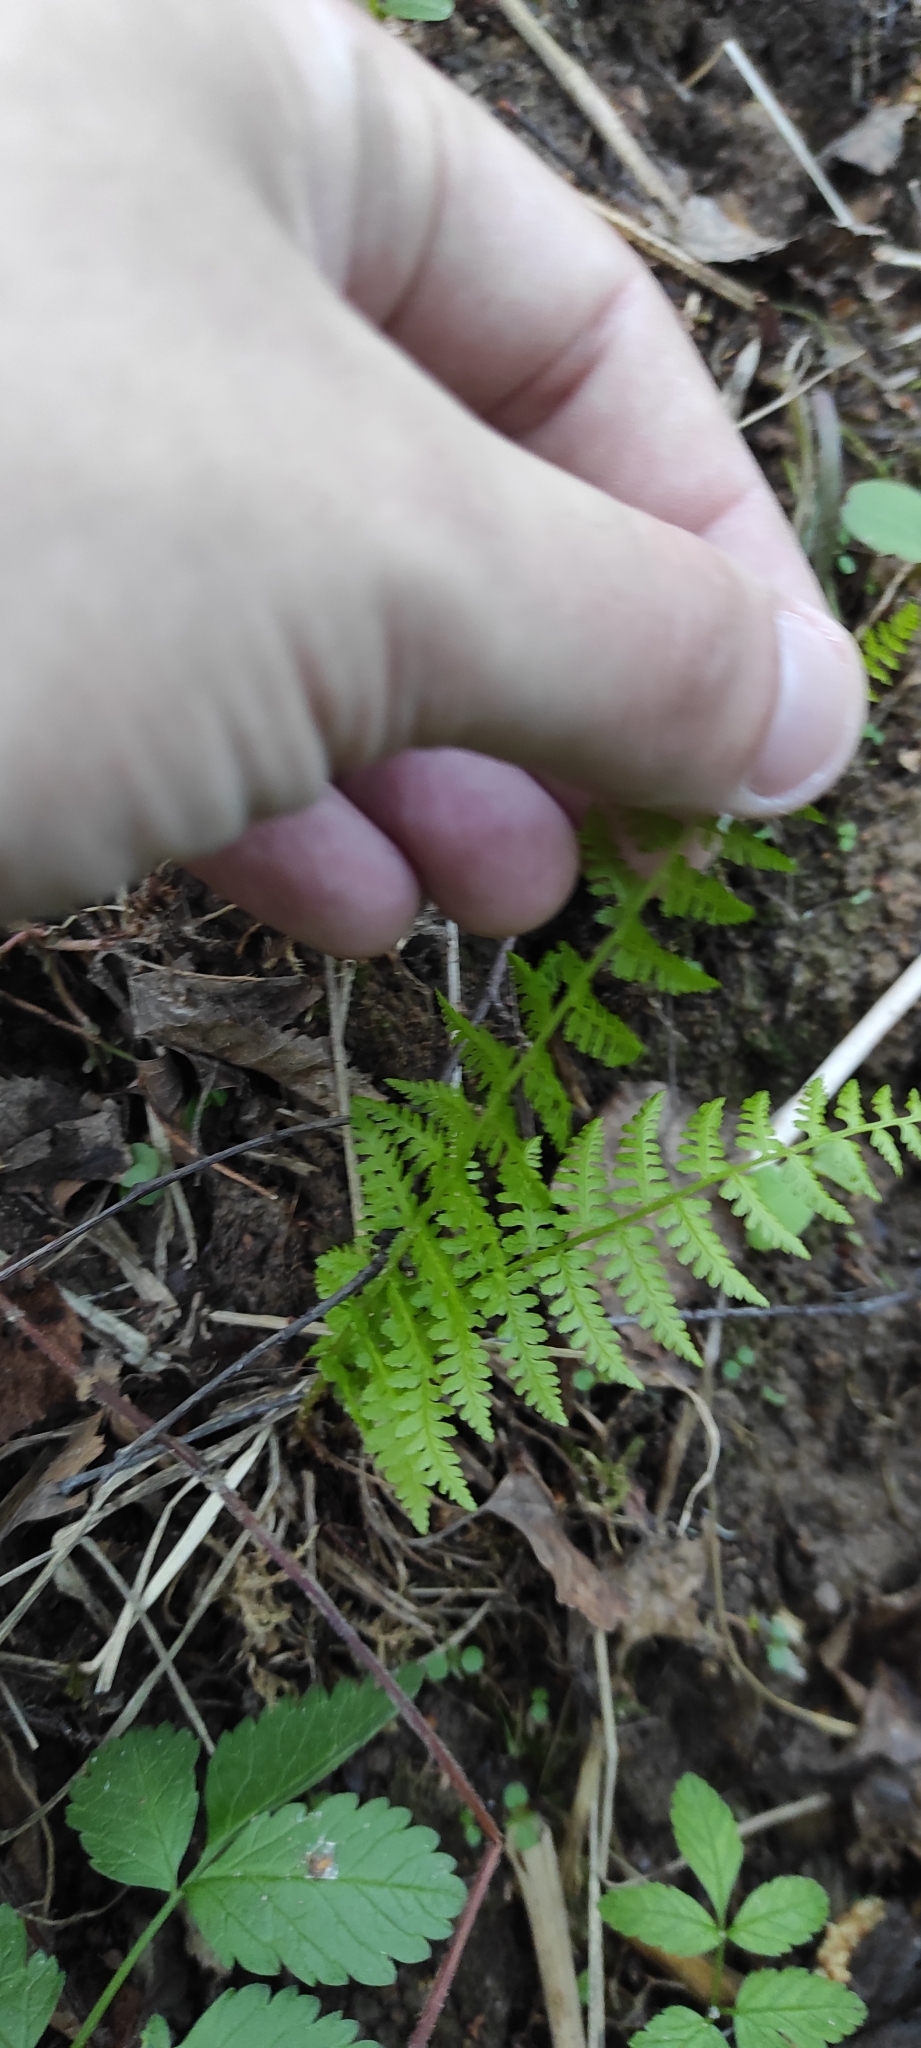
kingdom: Plantae
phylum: Tracheophyta
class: Polypodiopsida
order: Polypodiales
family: Athyriaceae
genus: Athyrium
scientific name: Athyrium filix-femina
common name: Lady fern
